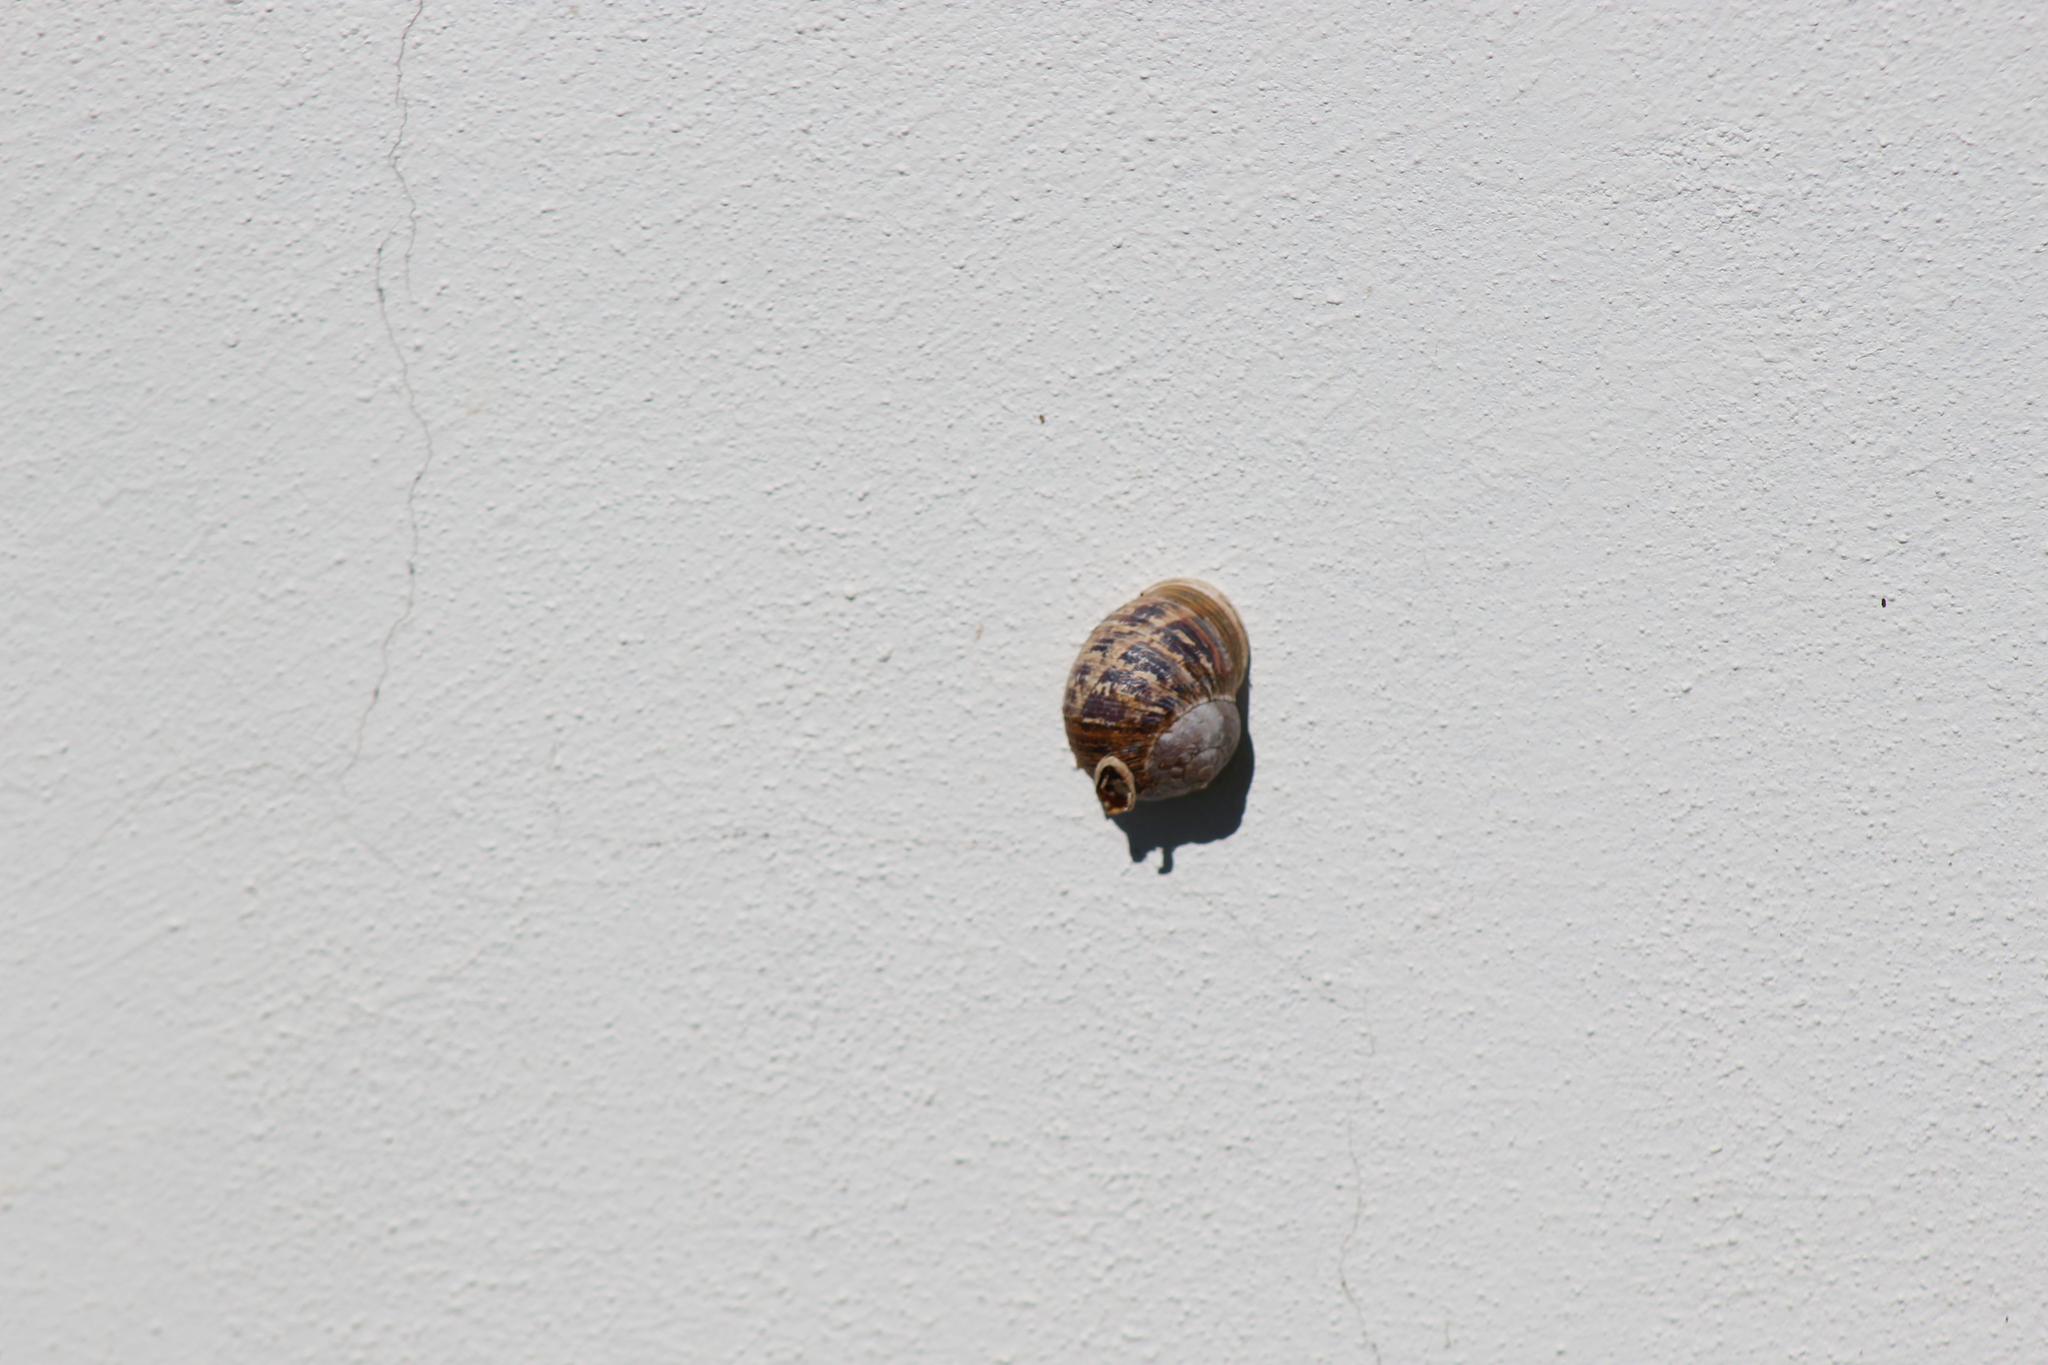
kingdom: Animalia
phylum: Mollusca
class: Gastropoda
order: Stylommatophora
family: Helicidae
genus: Cornu
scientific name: Cornu aspersum
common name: Brown garden snail
